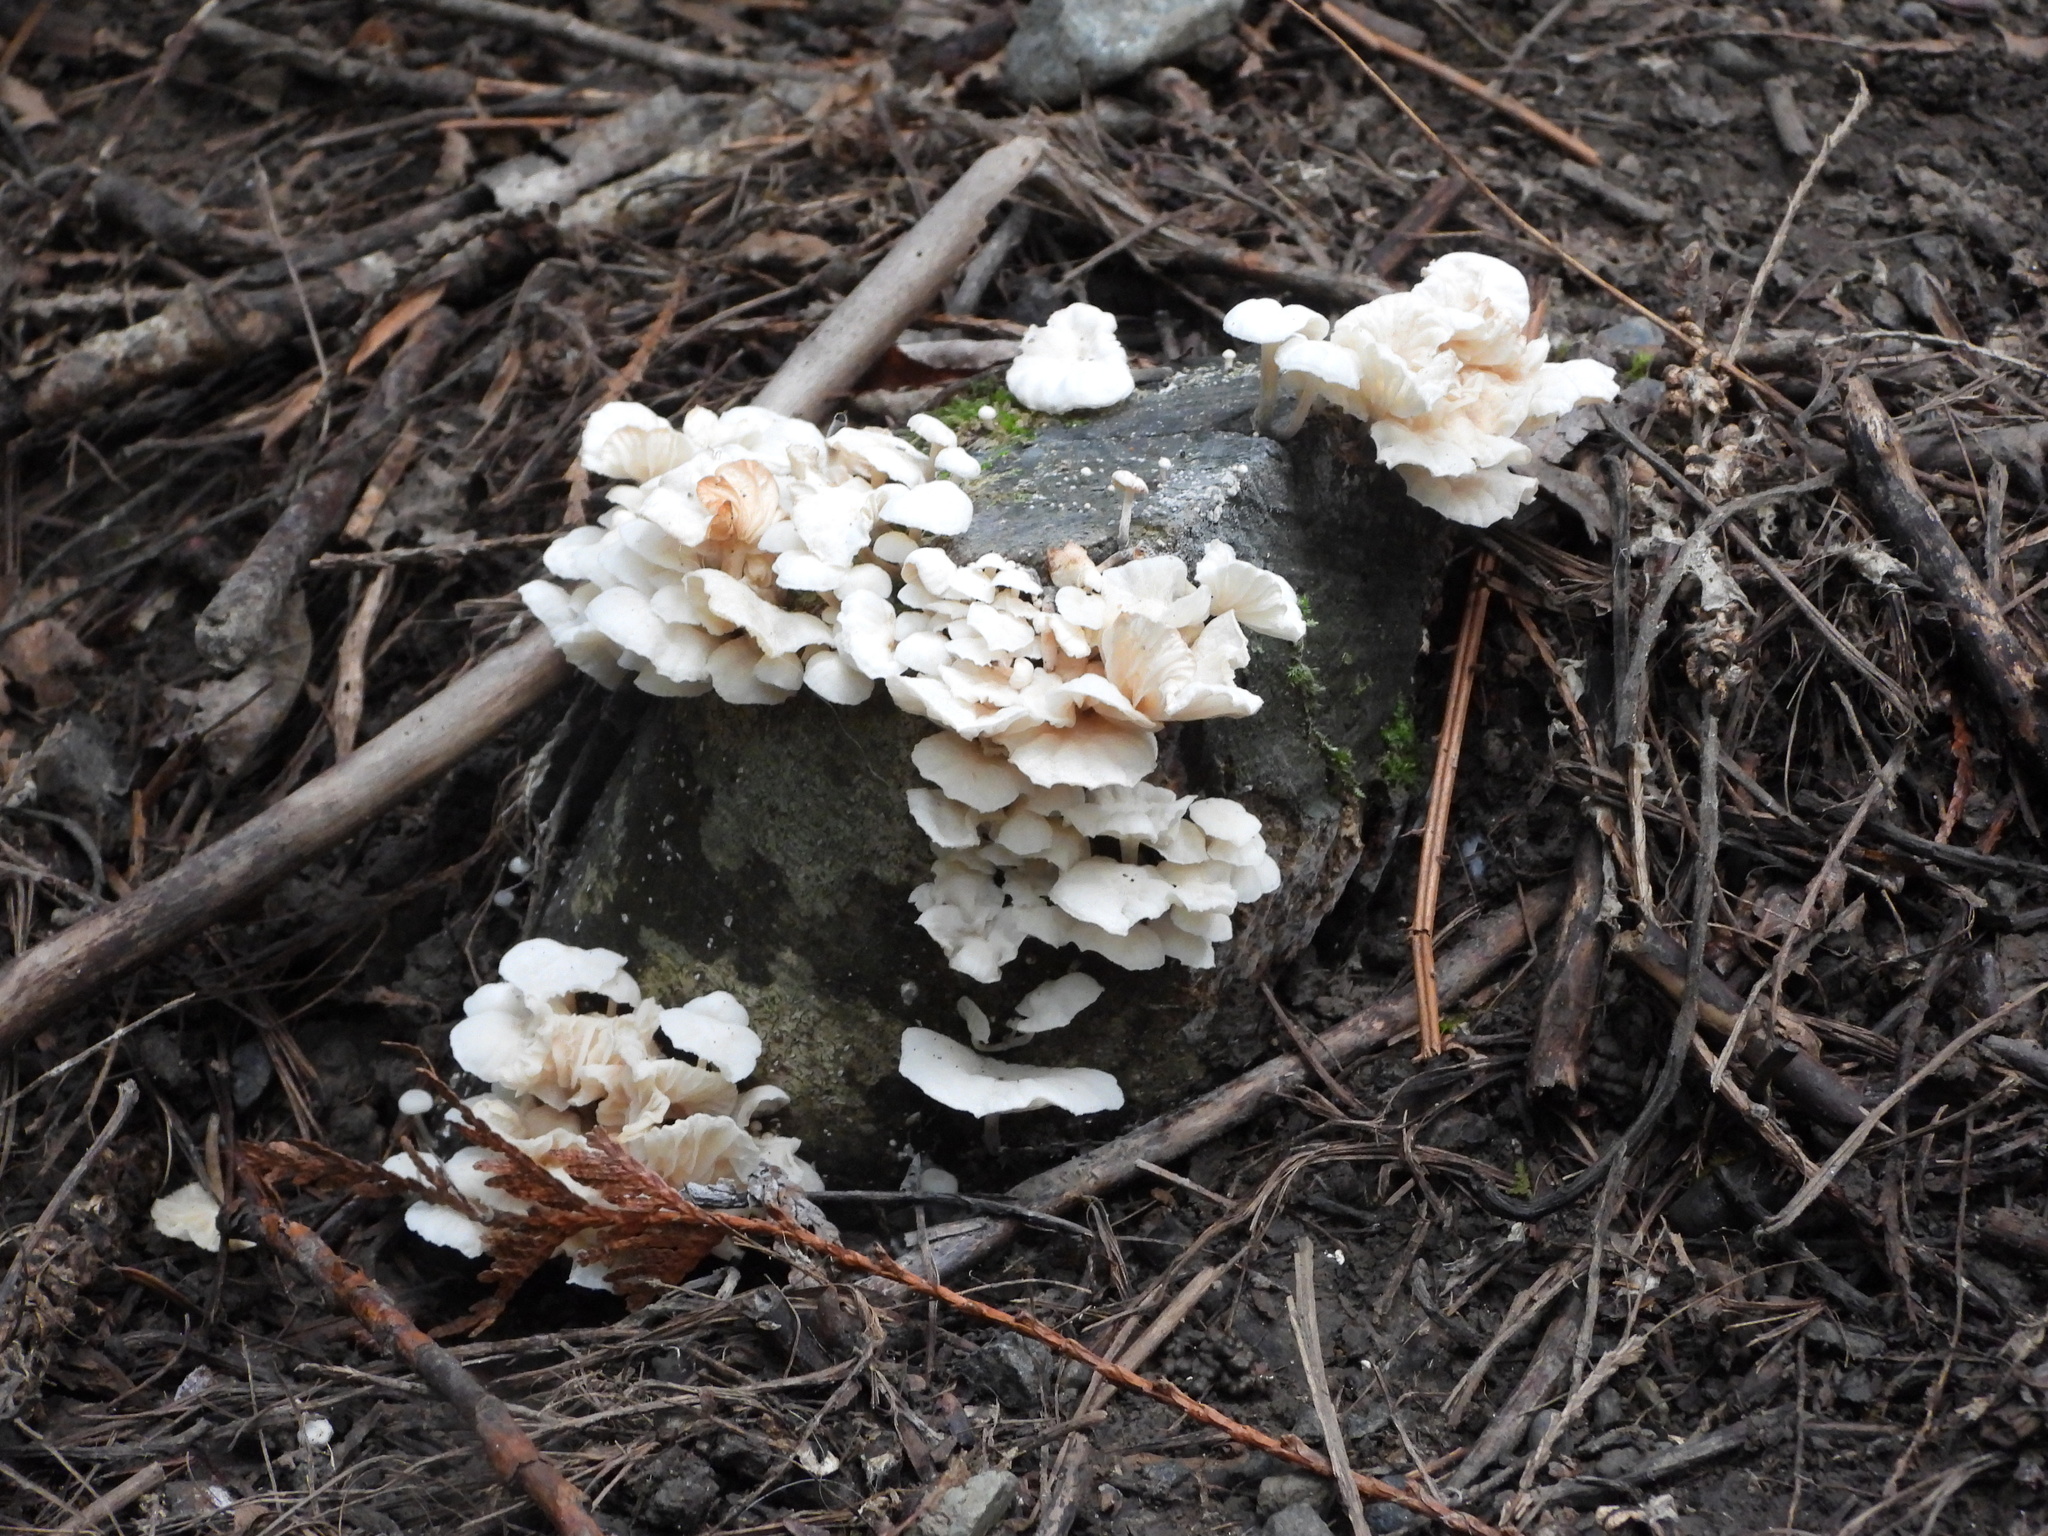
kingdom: Fungi
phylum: Basidiomycota
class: Agaricomycetes
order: Agaricales
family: Omphalotaceae
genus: Marasmiellus
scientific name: Marasmiellus candidus
